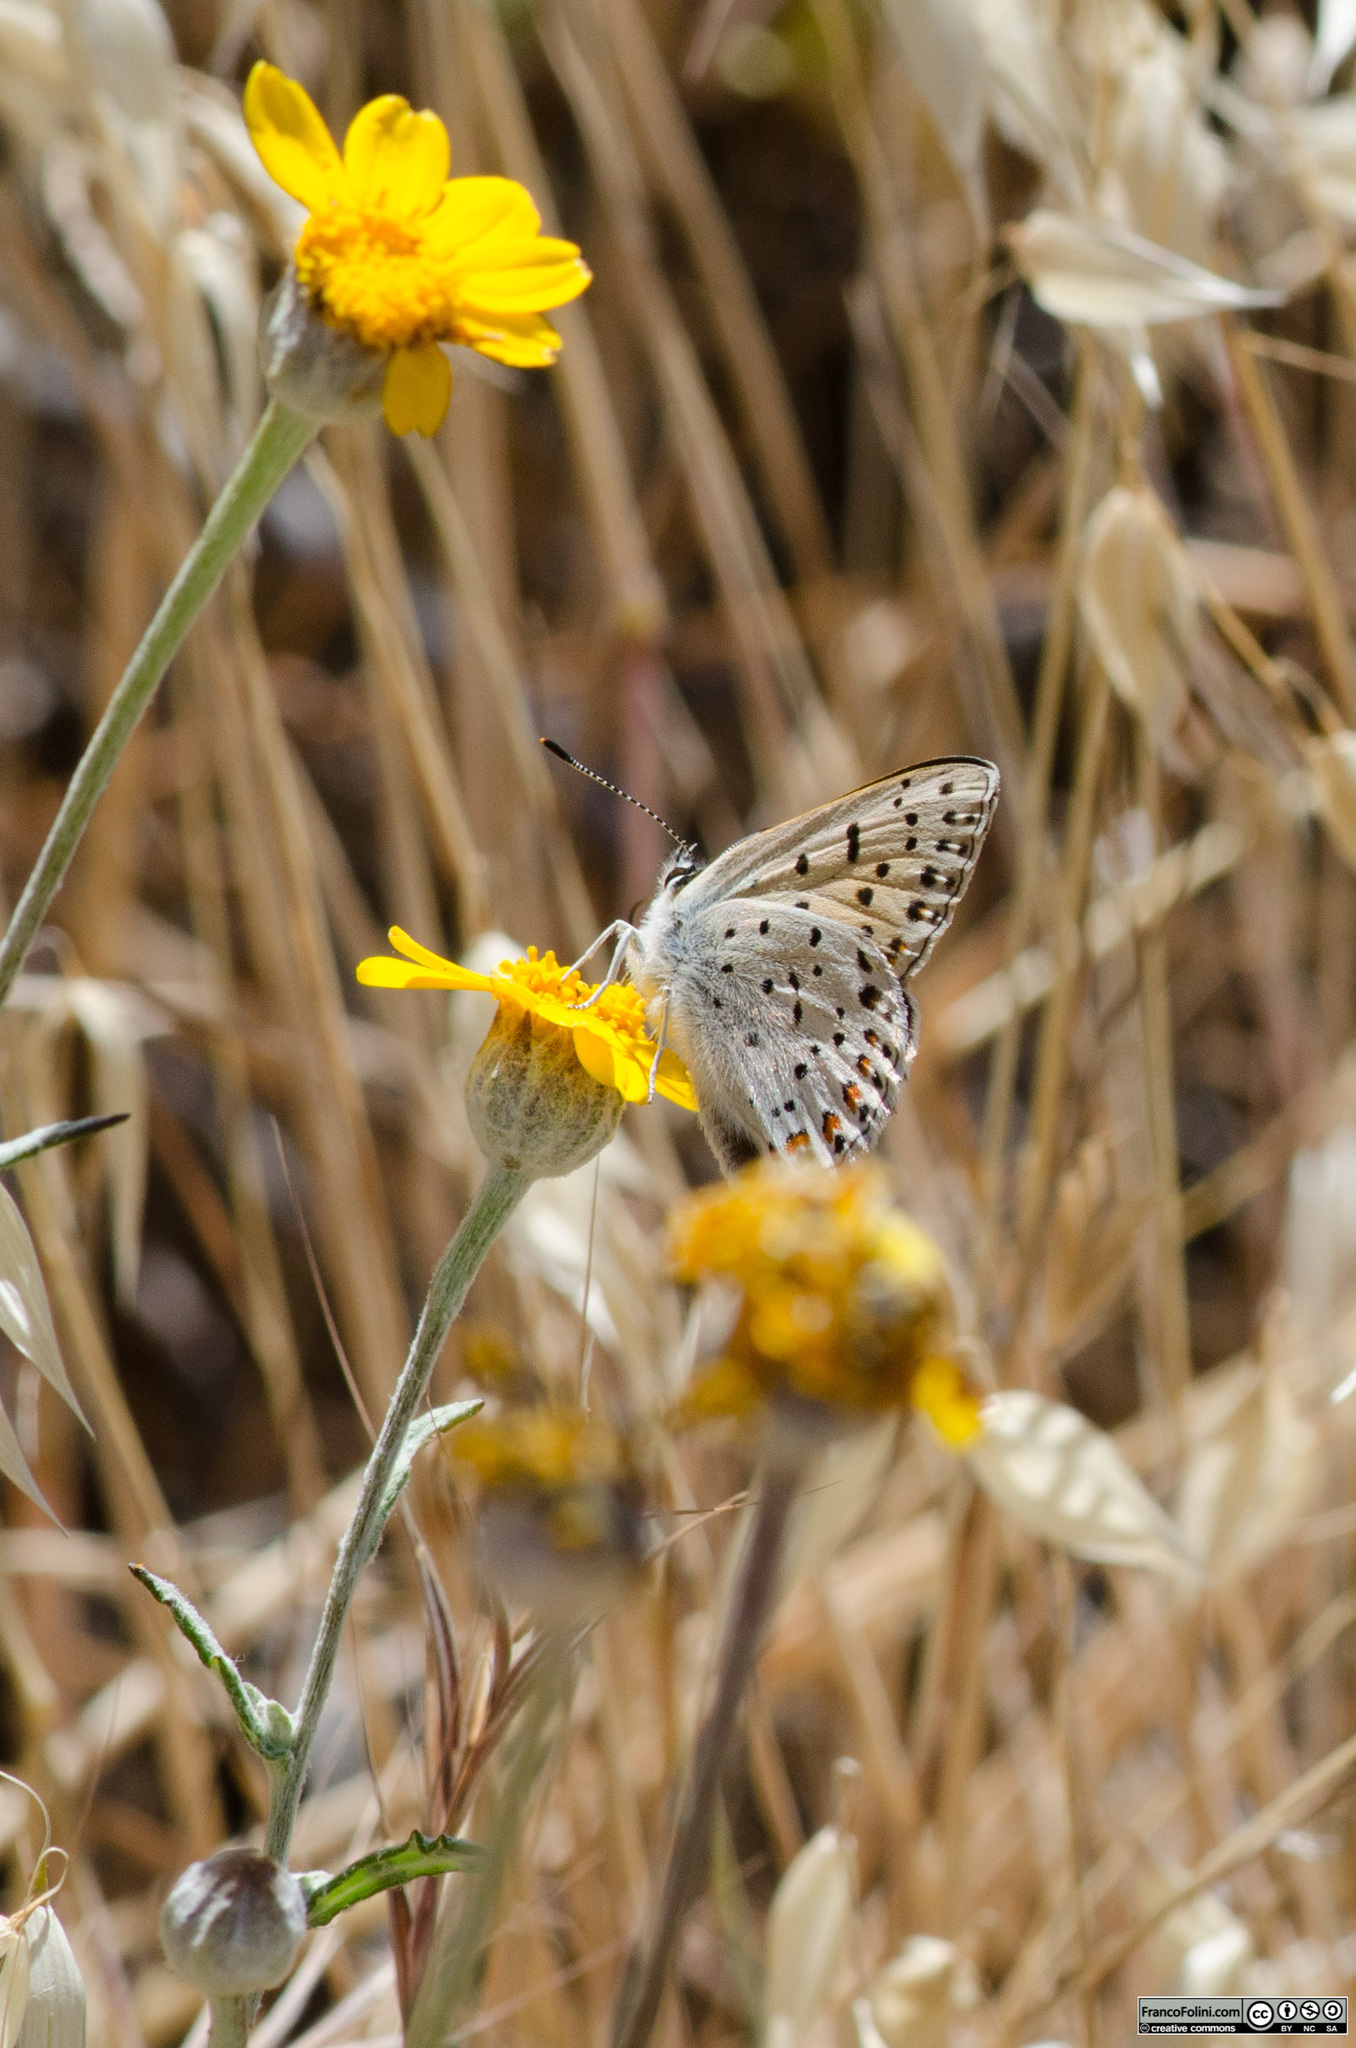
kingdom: Animalia
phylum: Arthropoda
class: Insecta
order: Lepidoptera
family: Lycaenidae
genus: Icaricia
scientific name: Icaricia acmon
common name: Acmon blue
